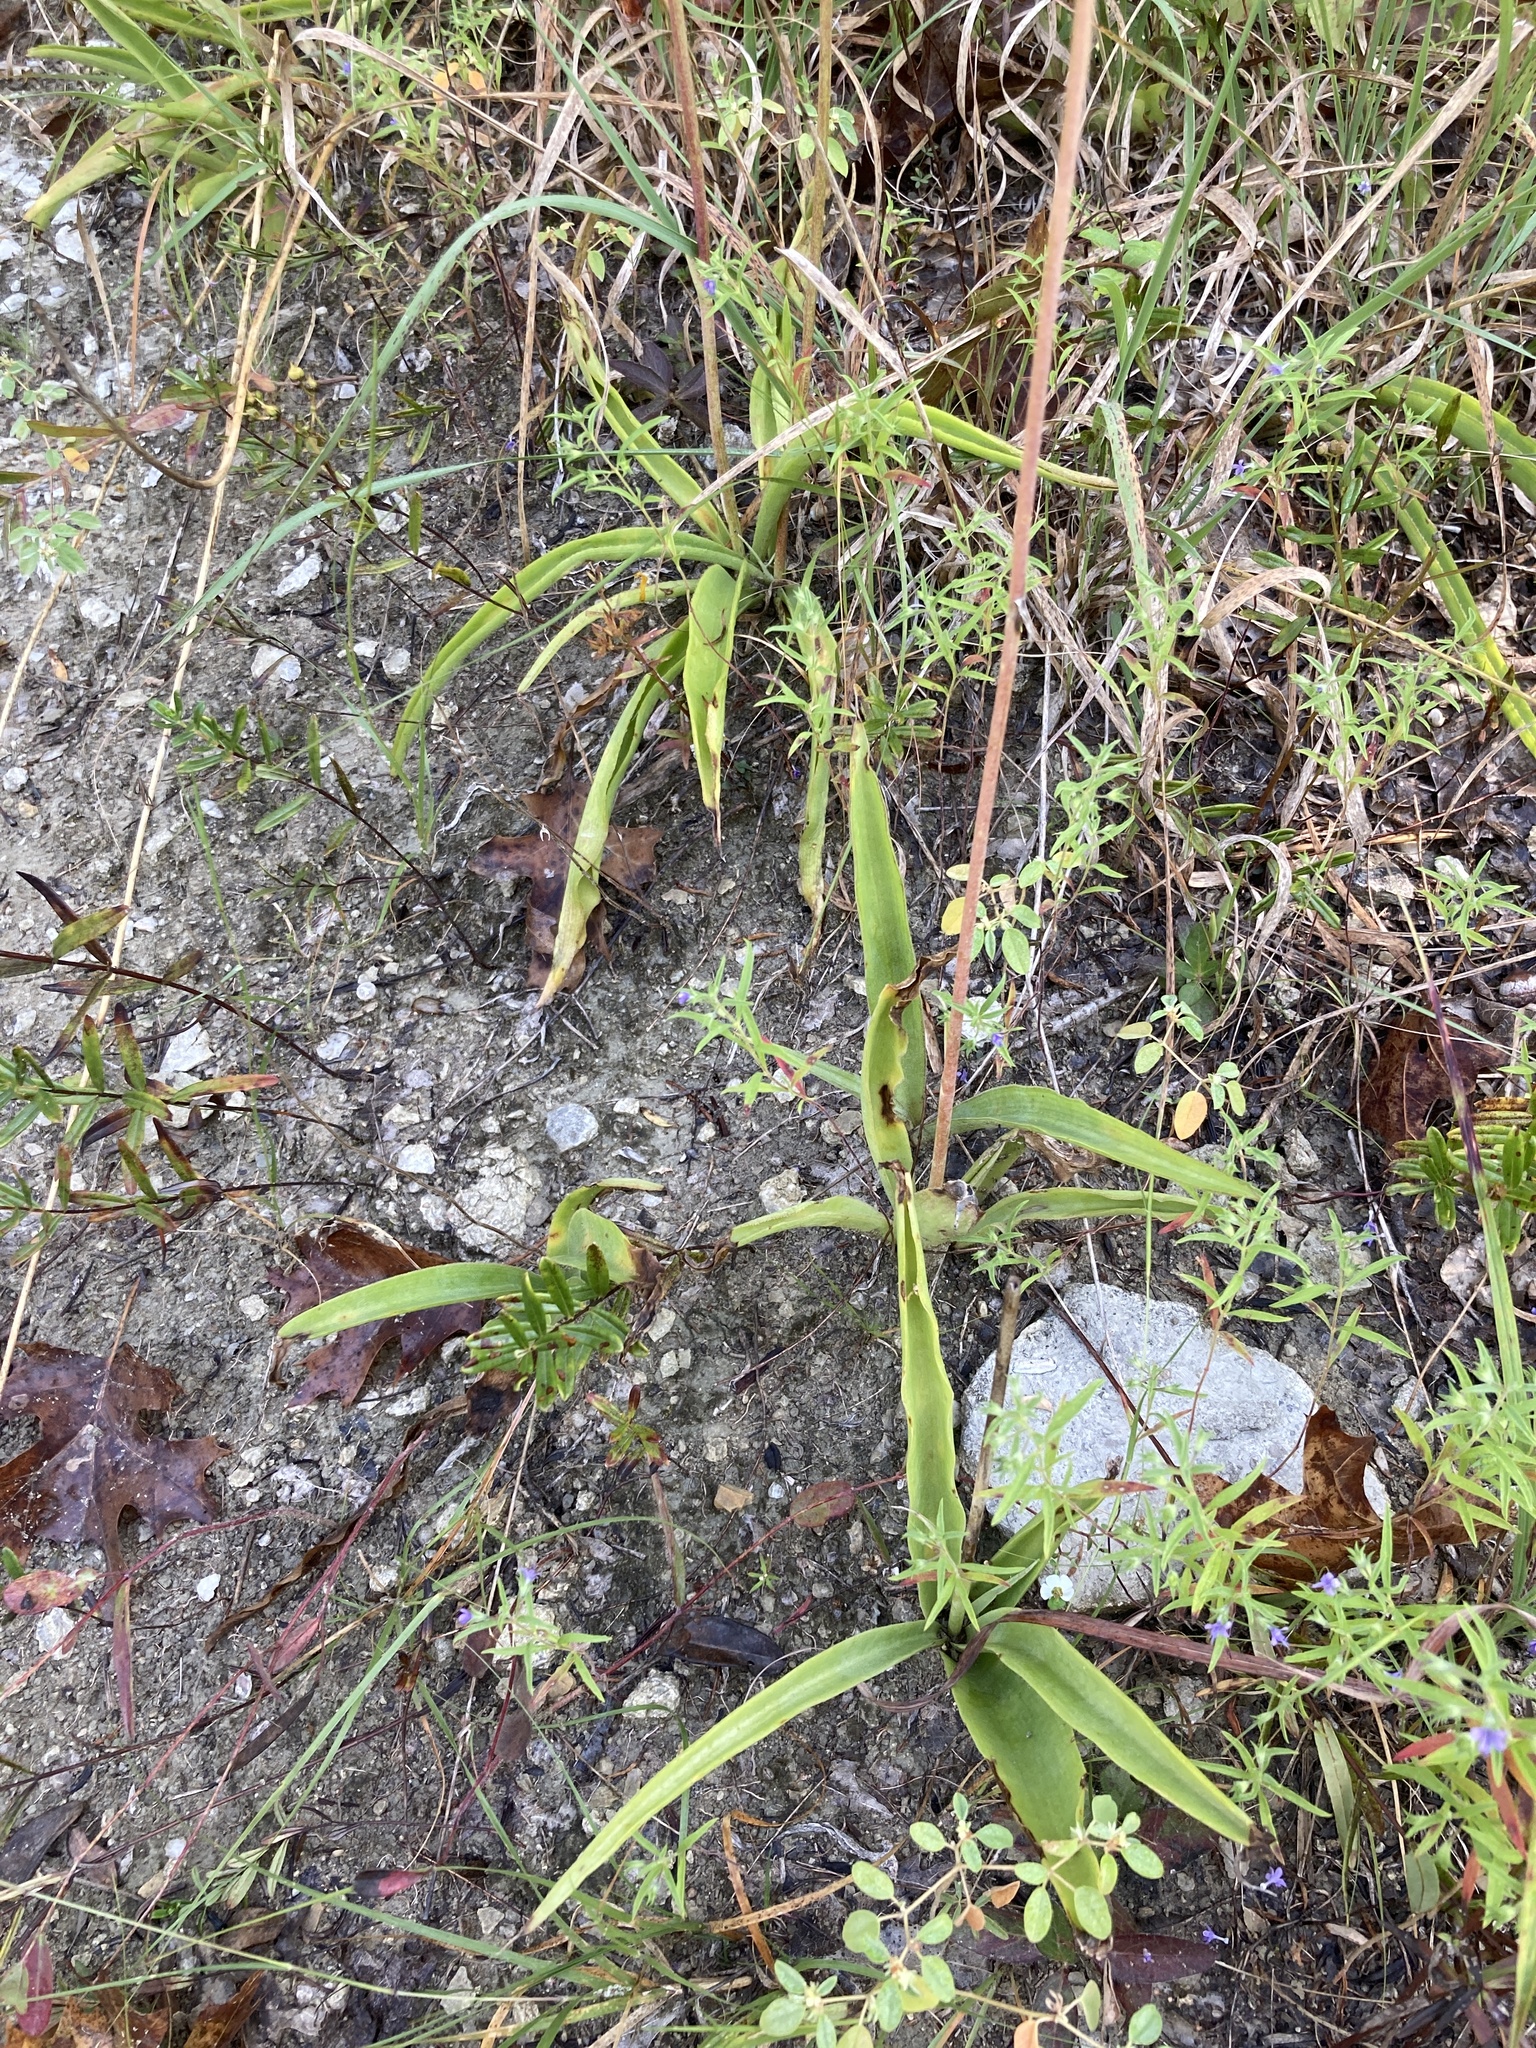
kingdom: Plantae
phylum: Tracheophyta
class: Liliopsida
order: Asparagales
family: Asparagaceae
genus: Agave
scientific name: Agave virginica
